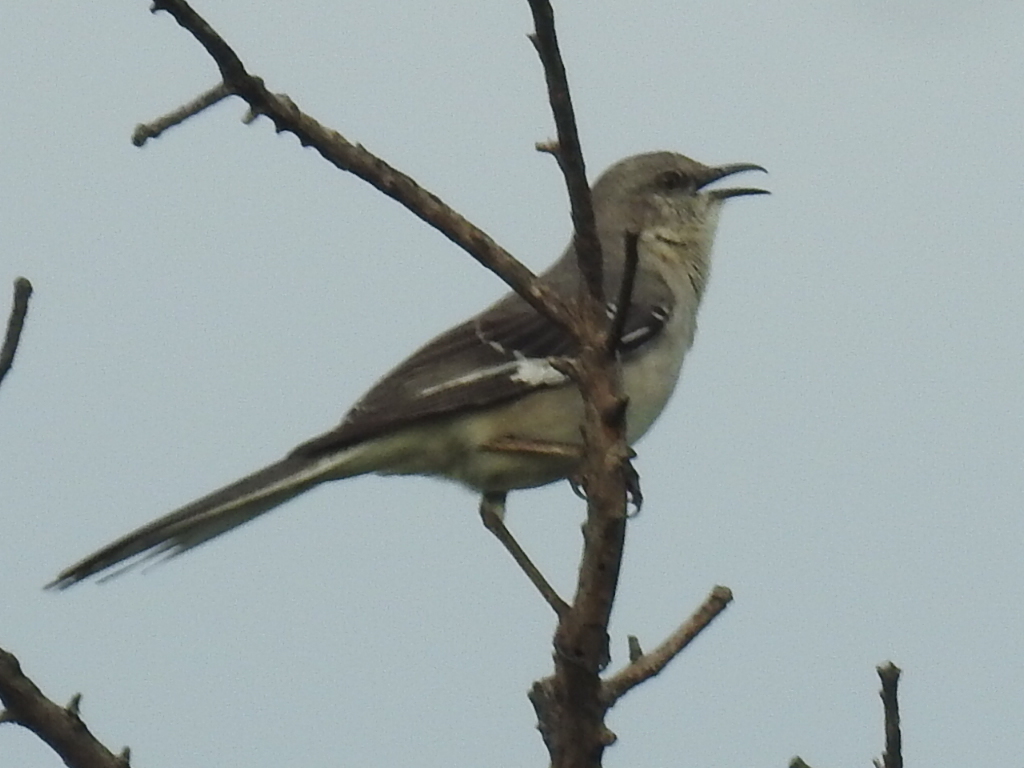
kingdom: Animalia
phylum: Chordata
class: Aves
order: Passeriformes
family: Mimidae
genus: Mimus
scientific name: Mimus polyglottos
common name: Northern mockingbird
